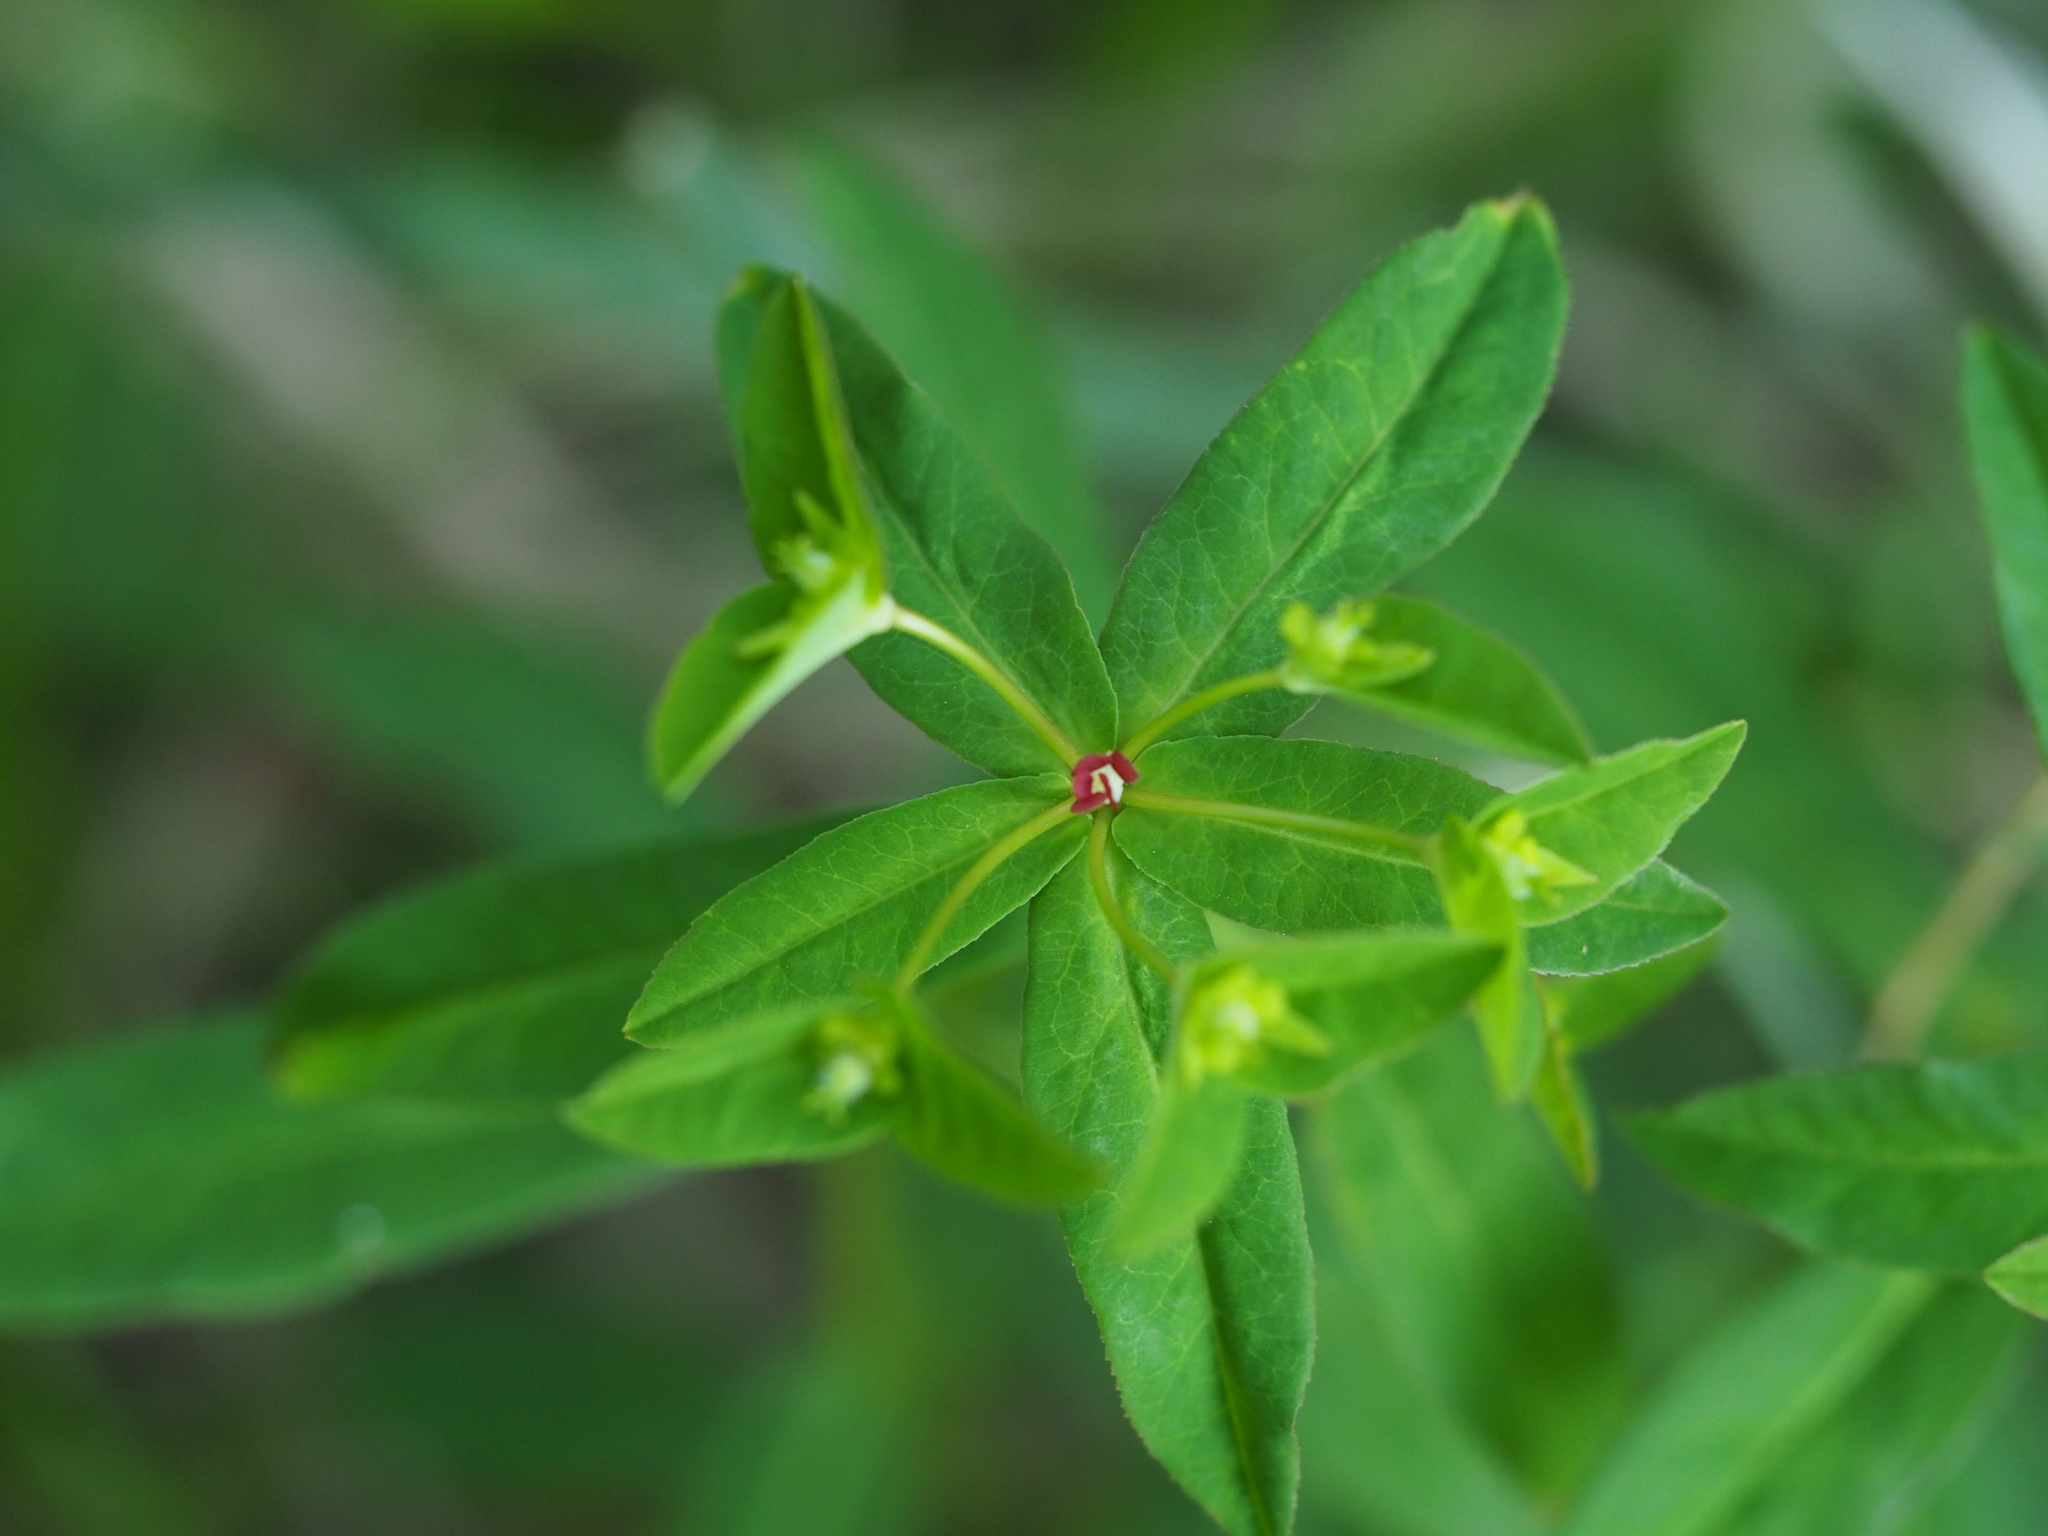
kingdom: Plantae
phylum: Tracheophyta
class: Magnoliopsida
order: Malpighiales
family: Euphorbiaceae
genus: Euphorbia
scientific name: Euphorbia dulcis
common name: Sweet spurge
